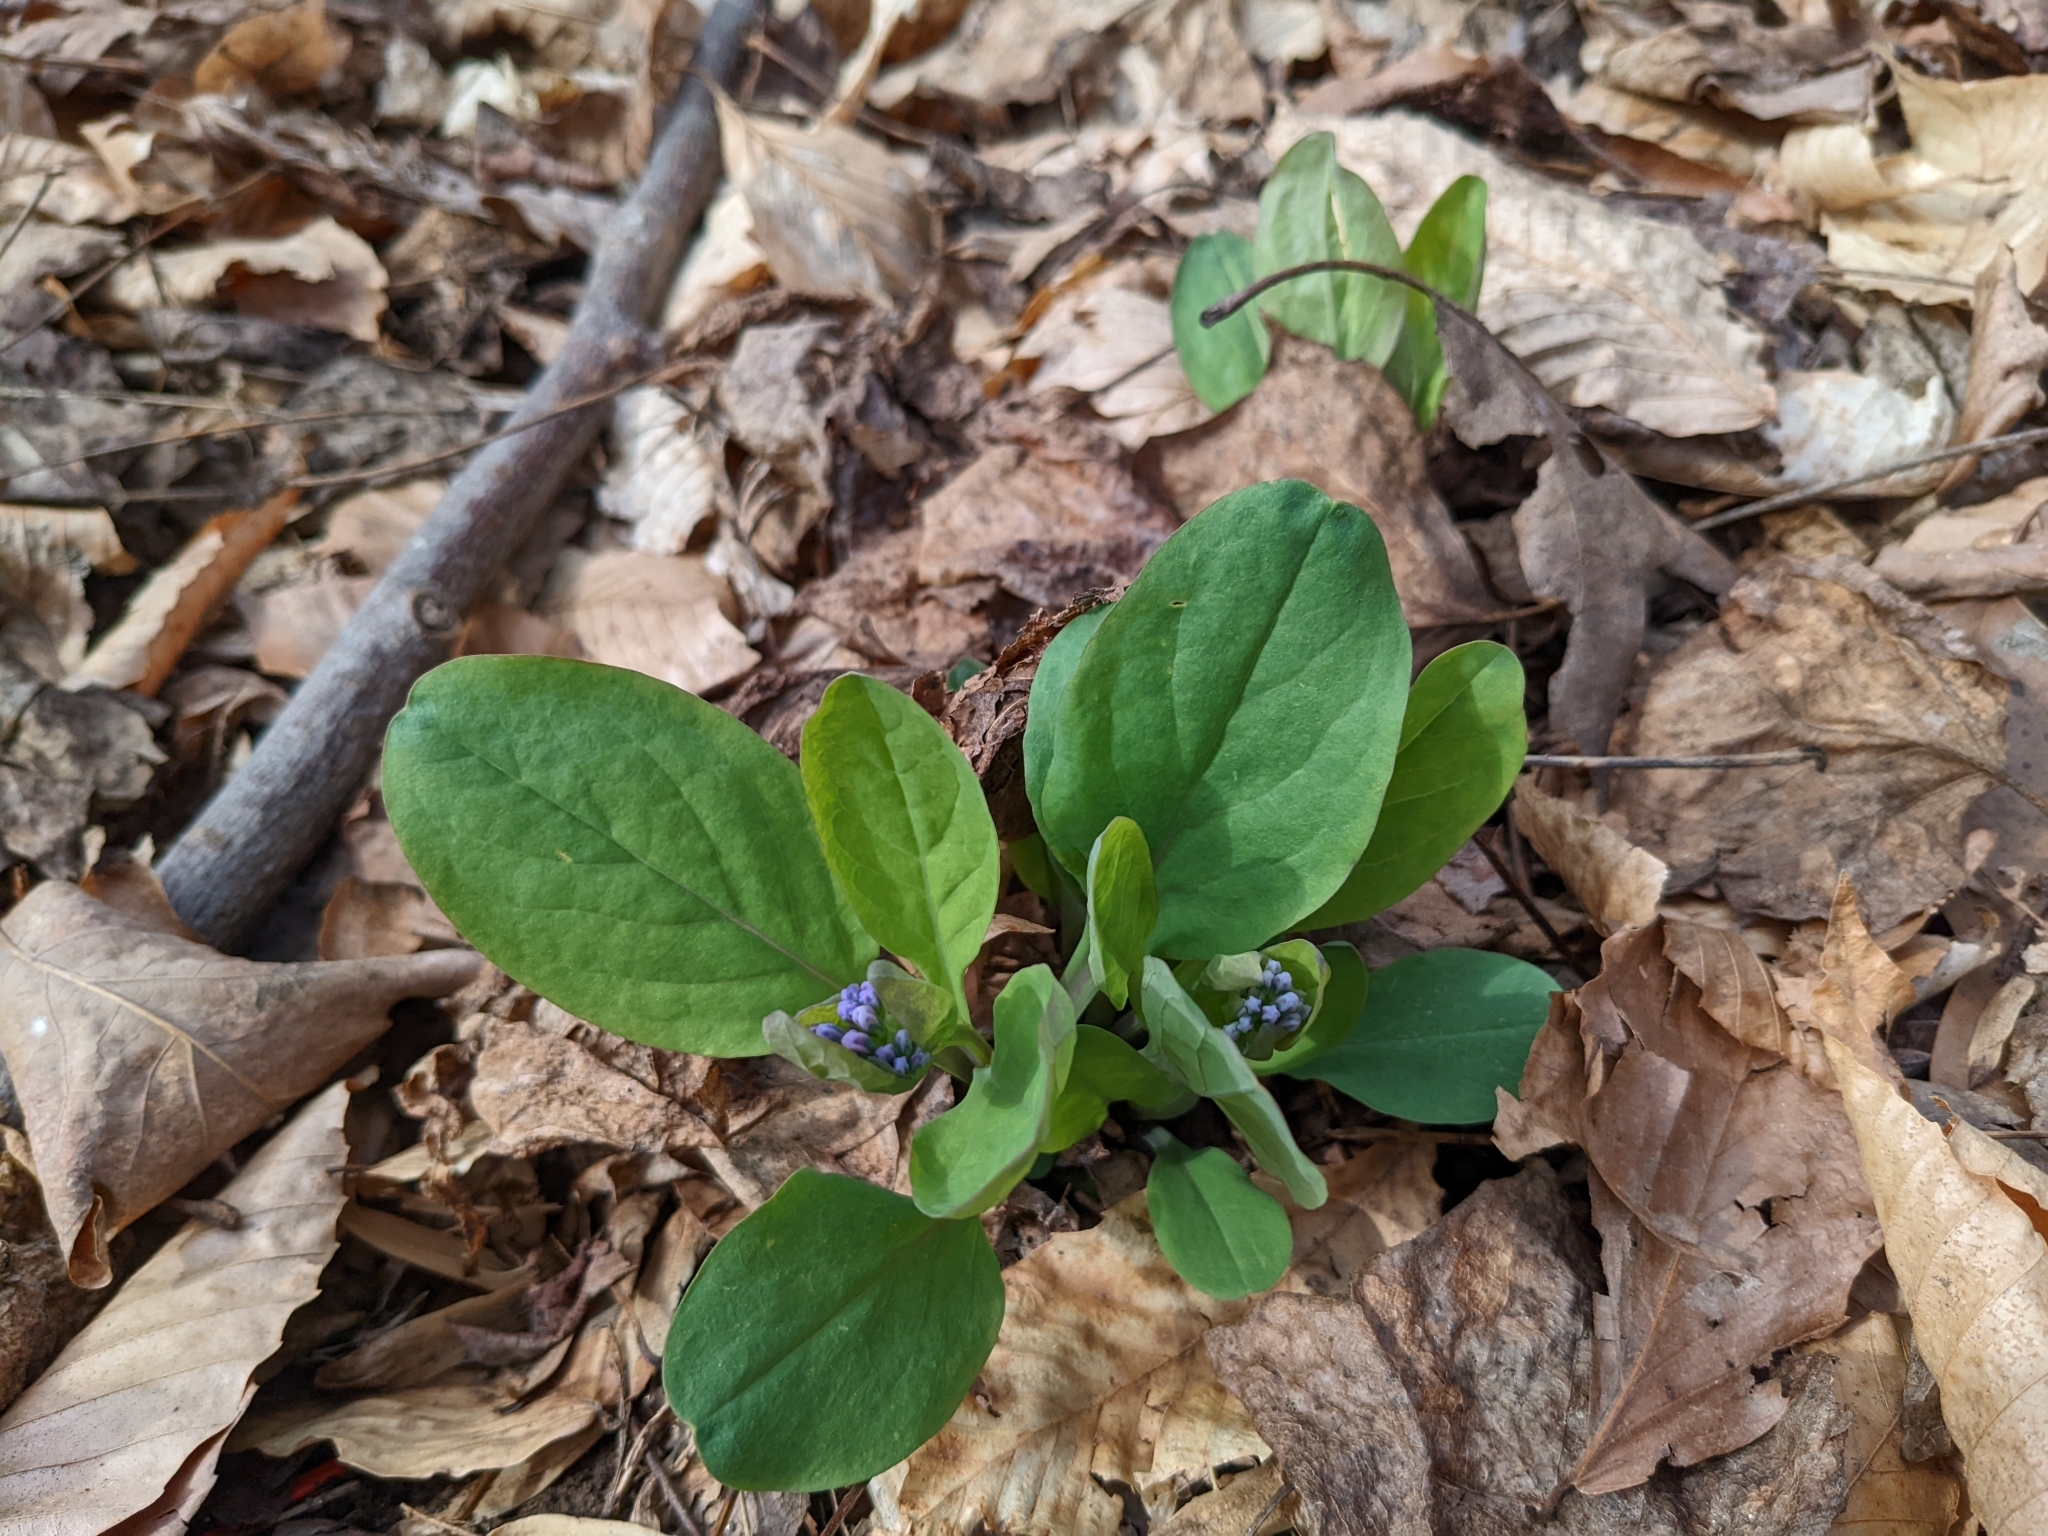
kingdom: Plantae
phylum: Tracheophyta
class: Magnoliopsida
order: Boraginales
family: Boraginaceae
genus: Mertensia
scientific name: Mertensia virginica
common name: Virginia bluebells
